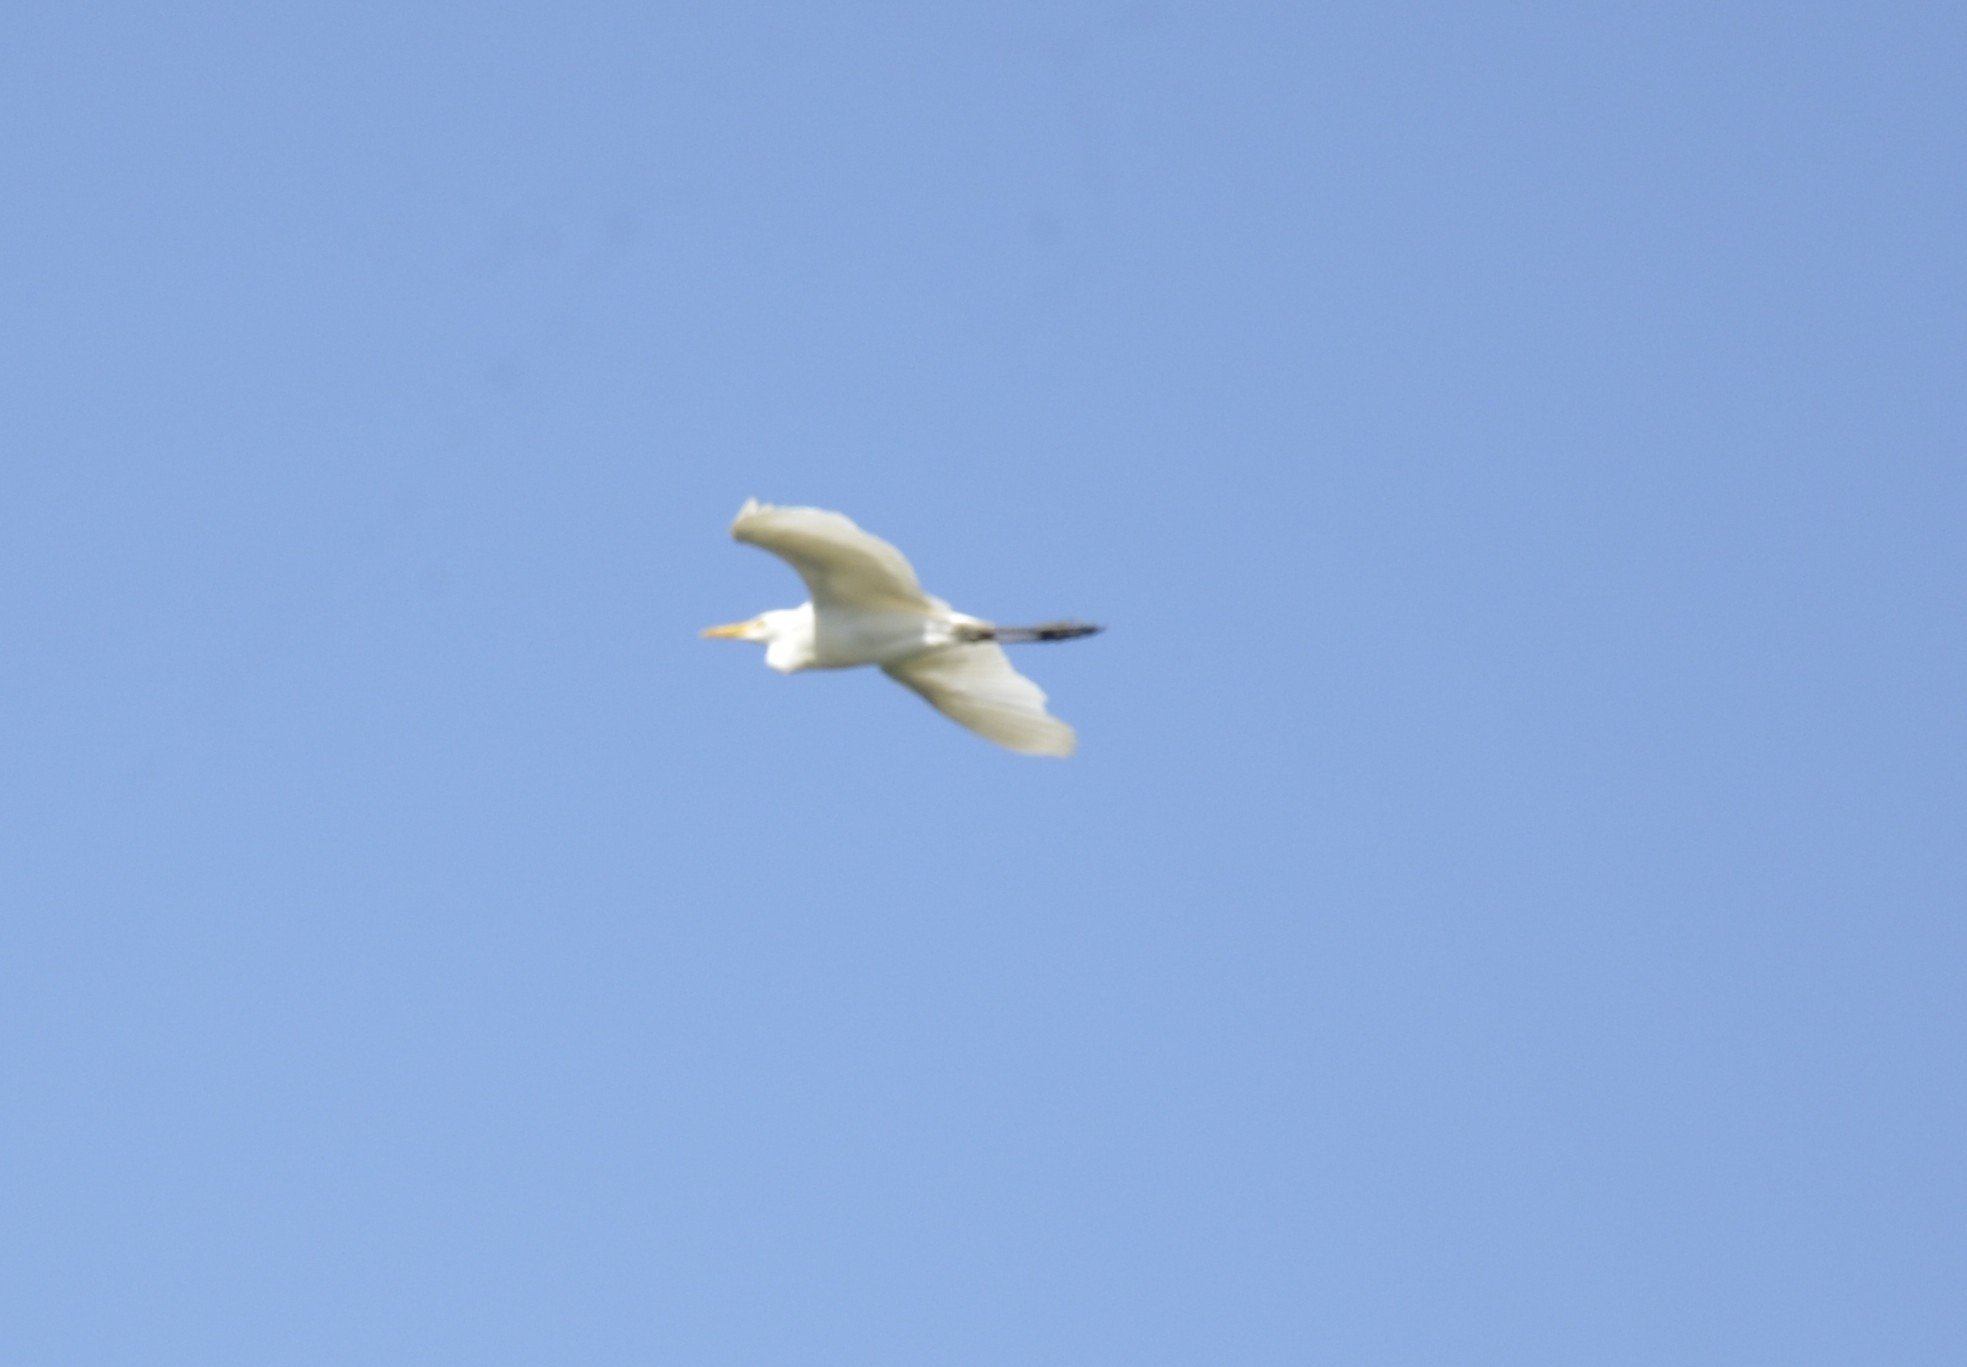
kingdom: Animalia
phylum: Chordata
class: Aves
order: Pelecaniformes
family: Ardeidae
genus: Bubulcus
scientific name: Bubulcus coromandus
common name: Eastern cattle egret
